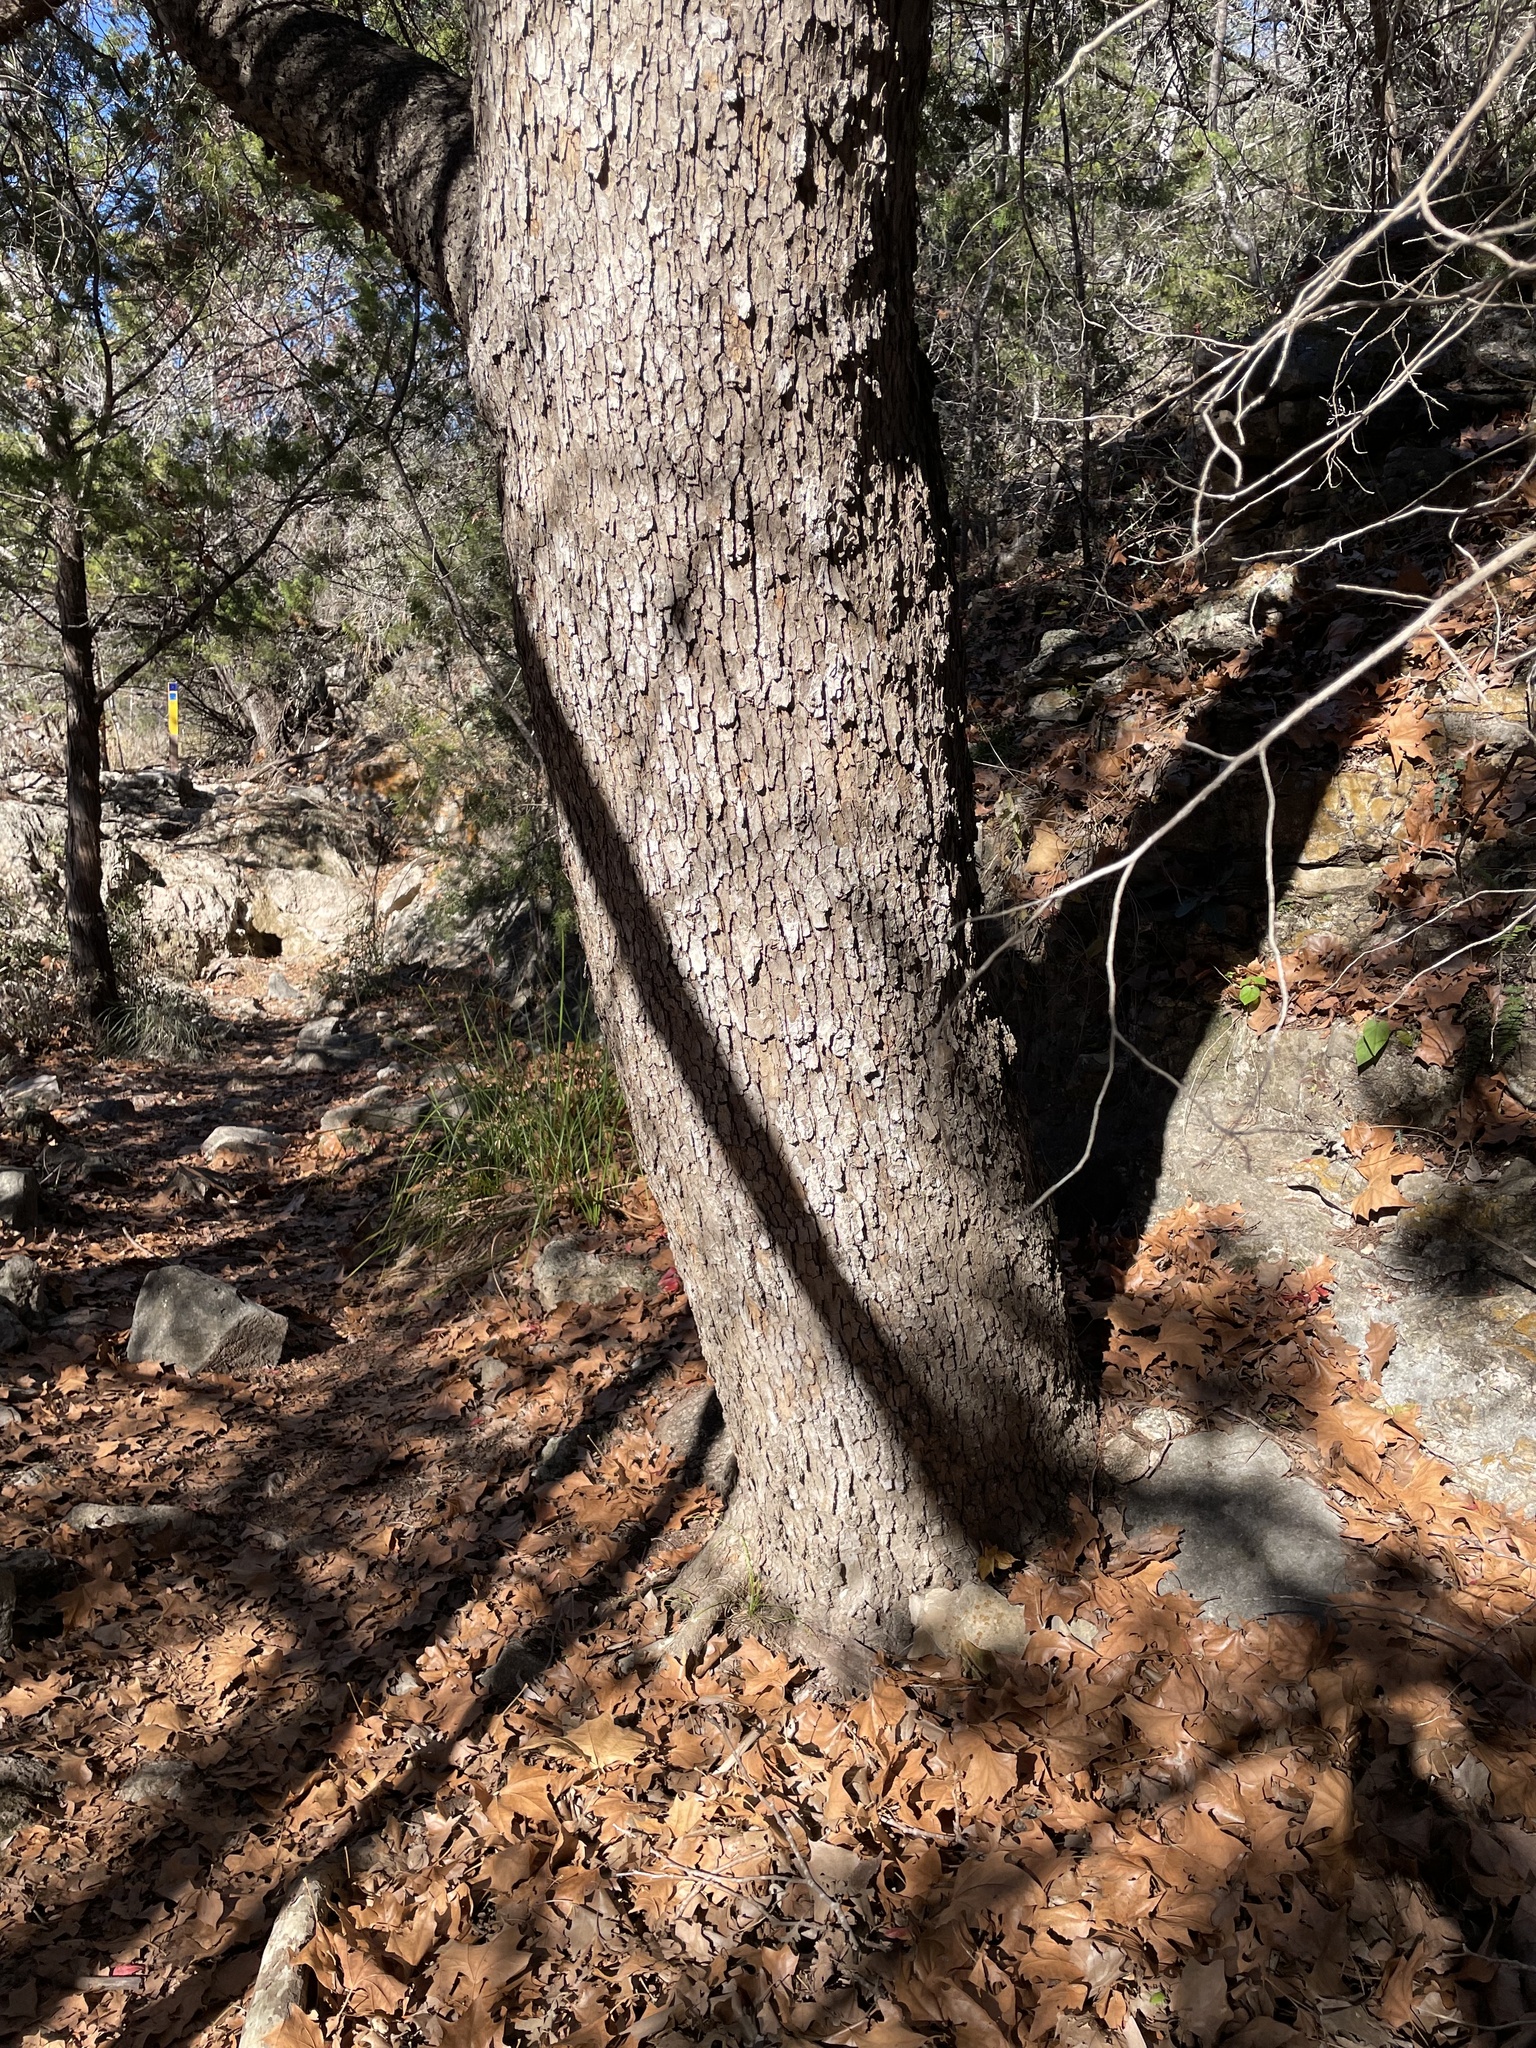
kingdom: Plantae
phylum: Tracheophyta
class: Magnoliopsida
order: Proteales
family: Platanaceae
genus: Platanus
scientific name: Platanus occidentalis
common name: American sycamore
